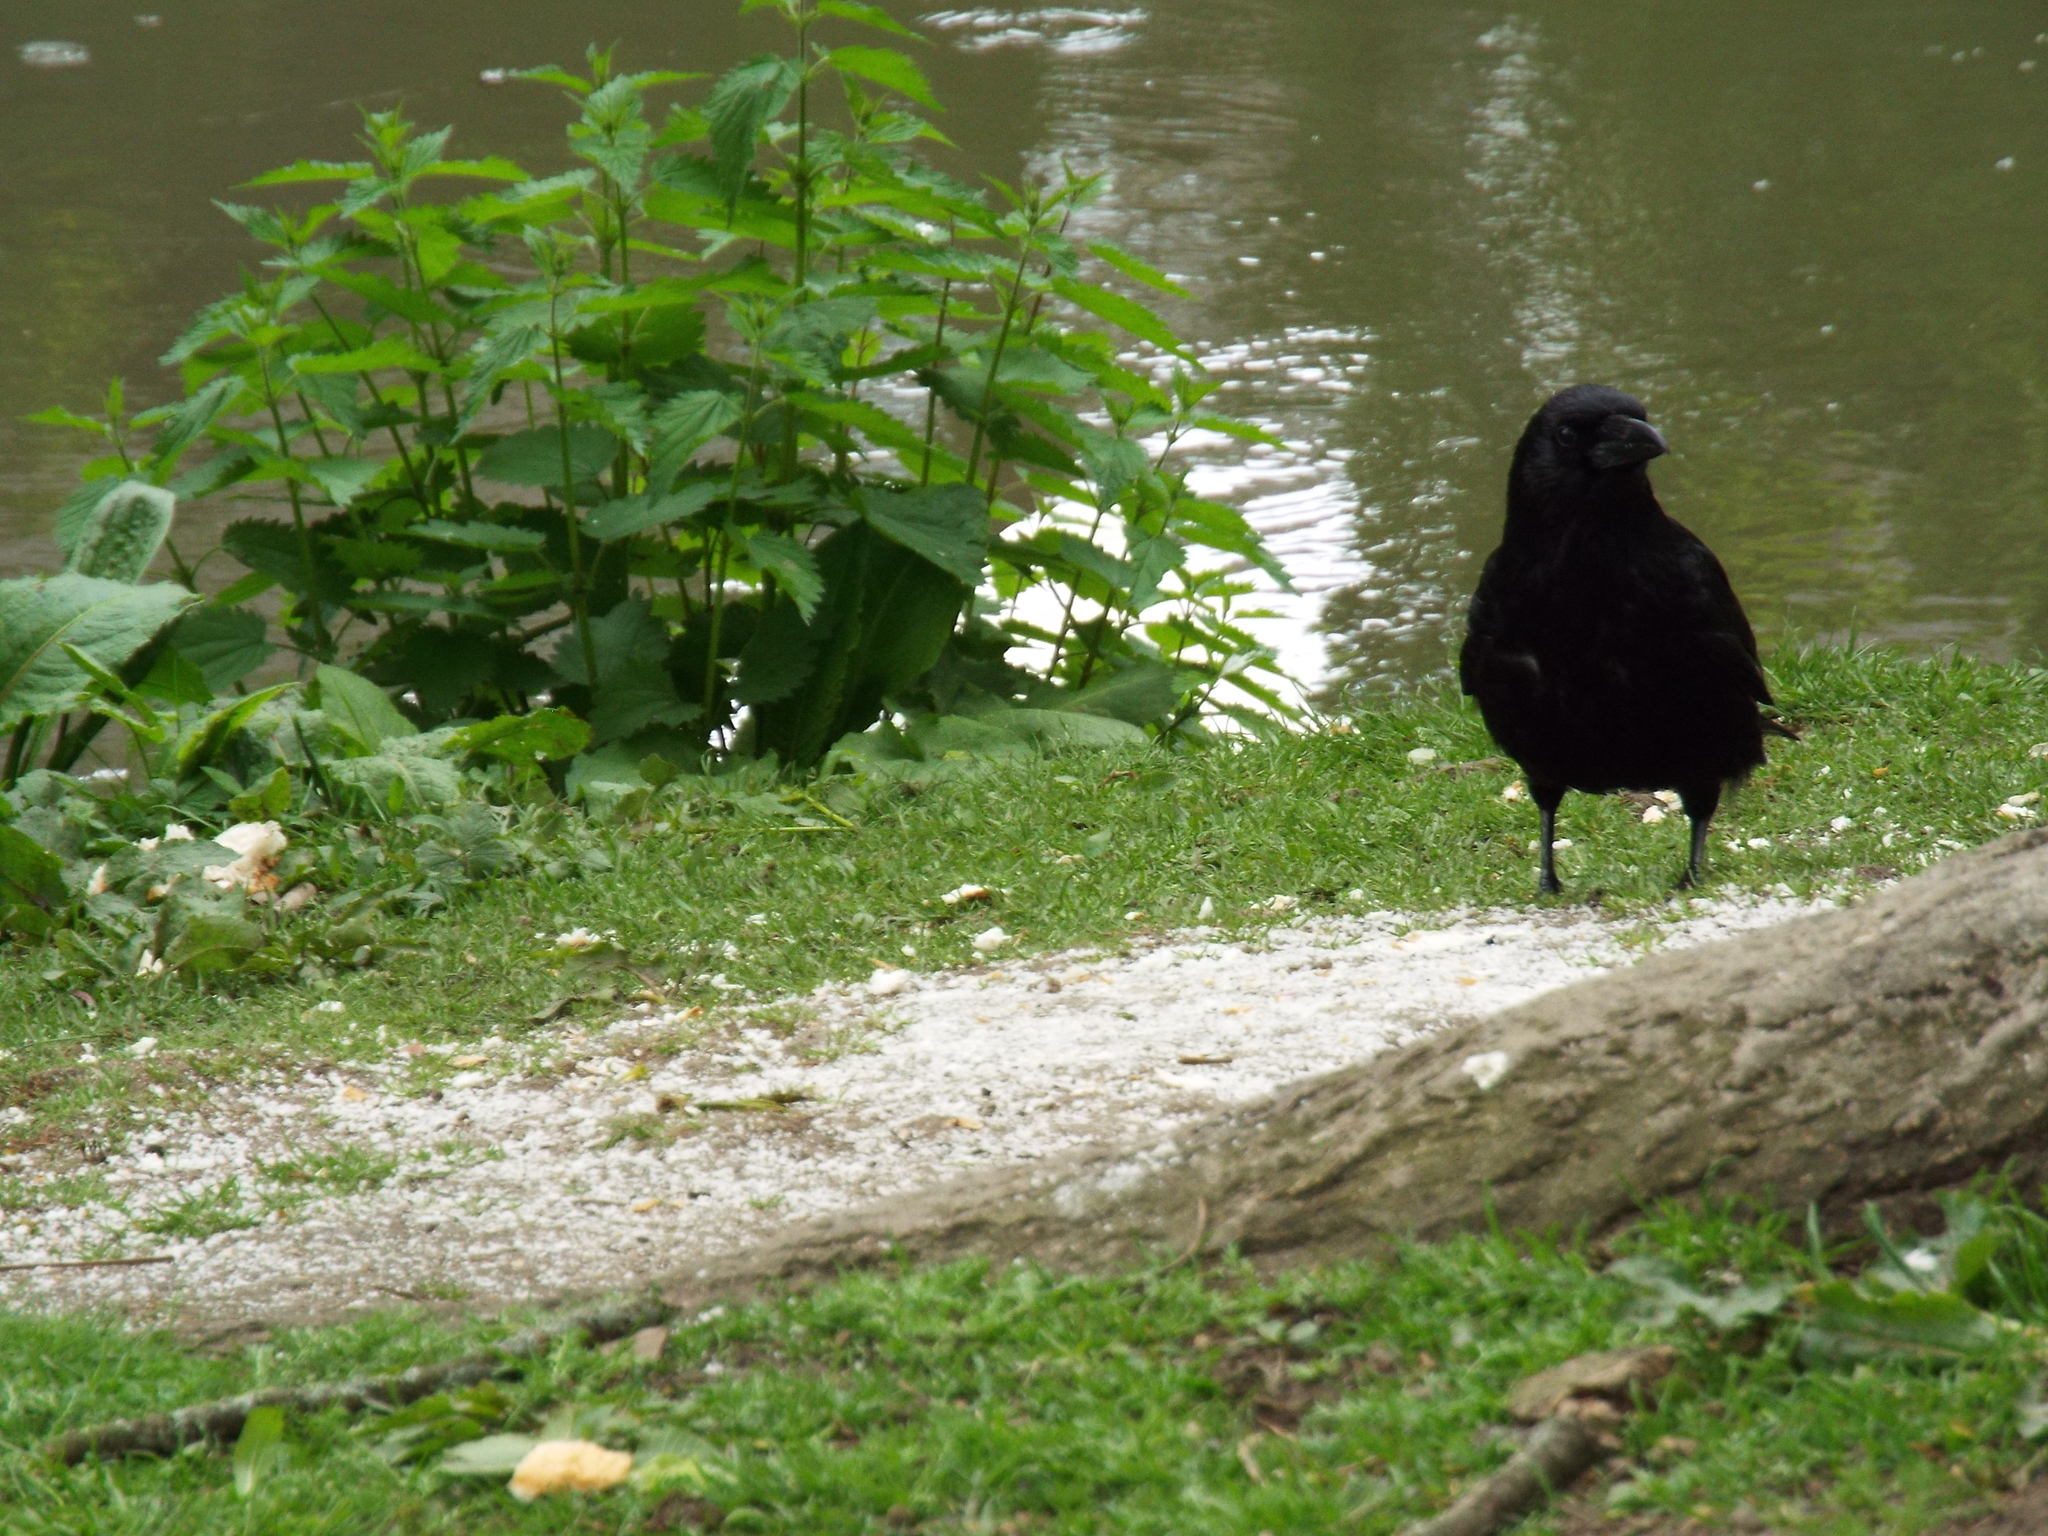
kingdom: Animalia
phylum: Chordata
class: Aves
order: Passeriformes
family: Corvidae
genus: Corvus
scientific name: Corvus corone
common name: Carrion crow
